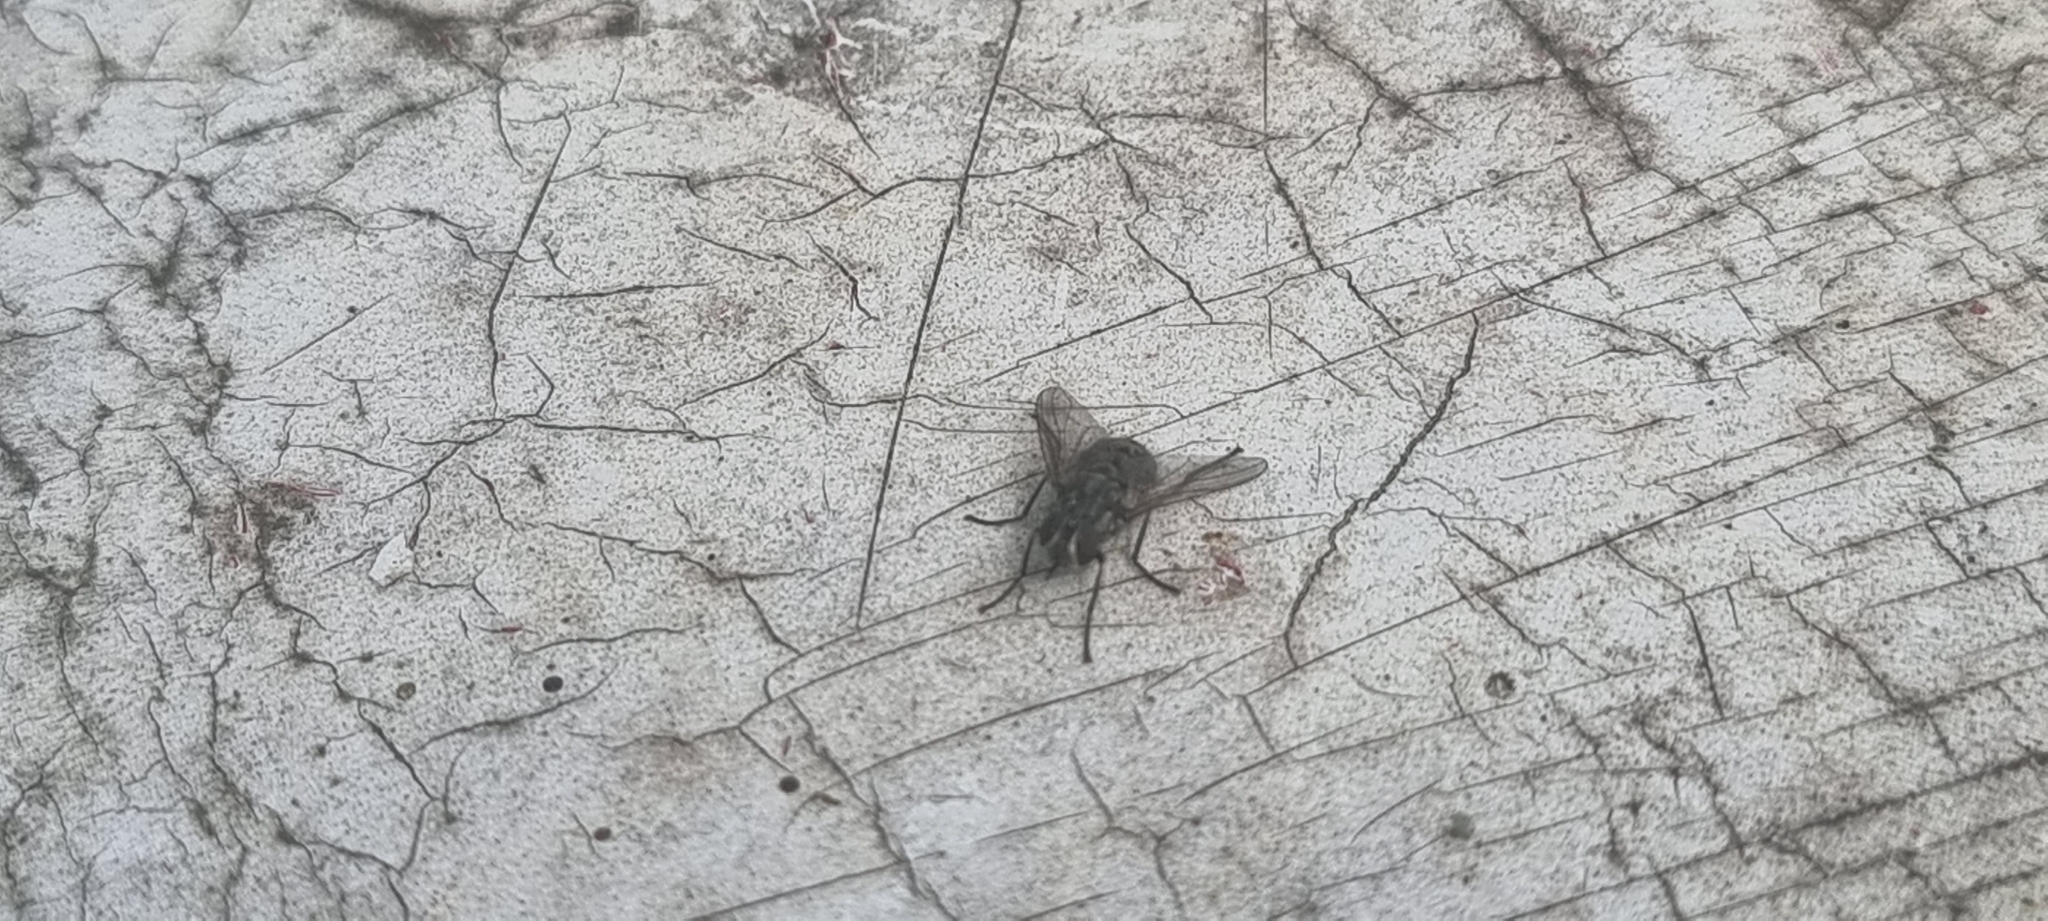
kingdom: Animalia
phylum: Arthropoda
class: Insecta
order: Diptera
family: Muscidae
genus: Stomoxys
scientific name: Stomoxys calcitrans
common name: Stable fly
